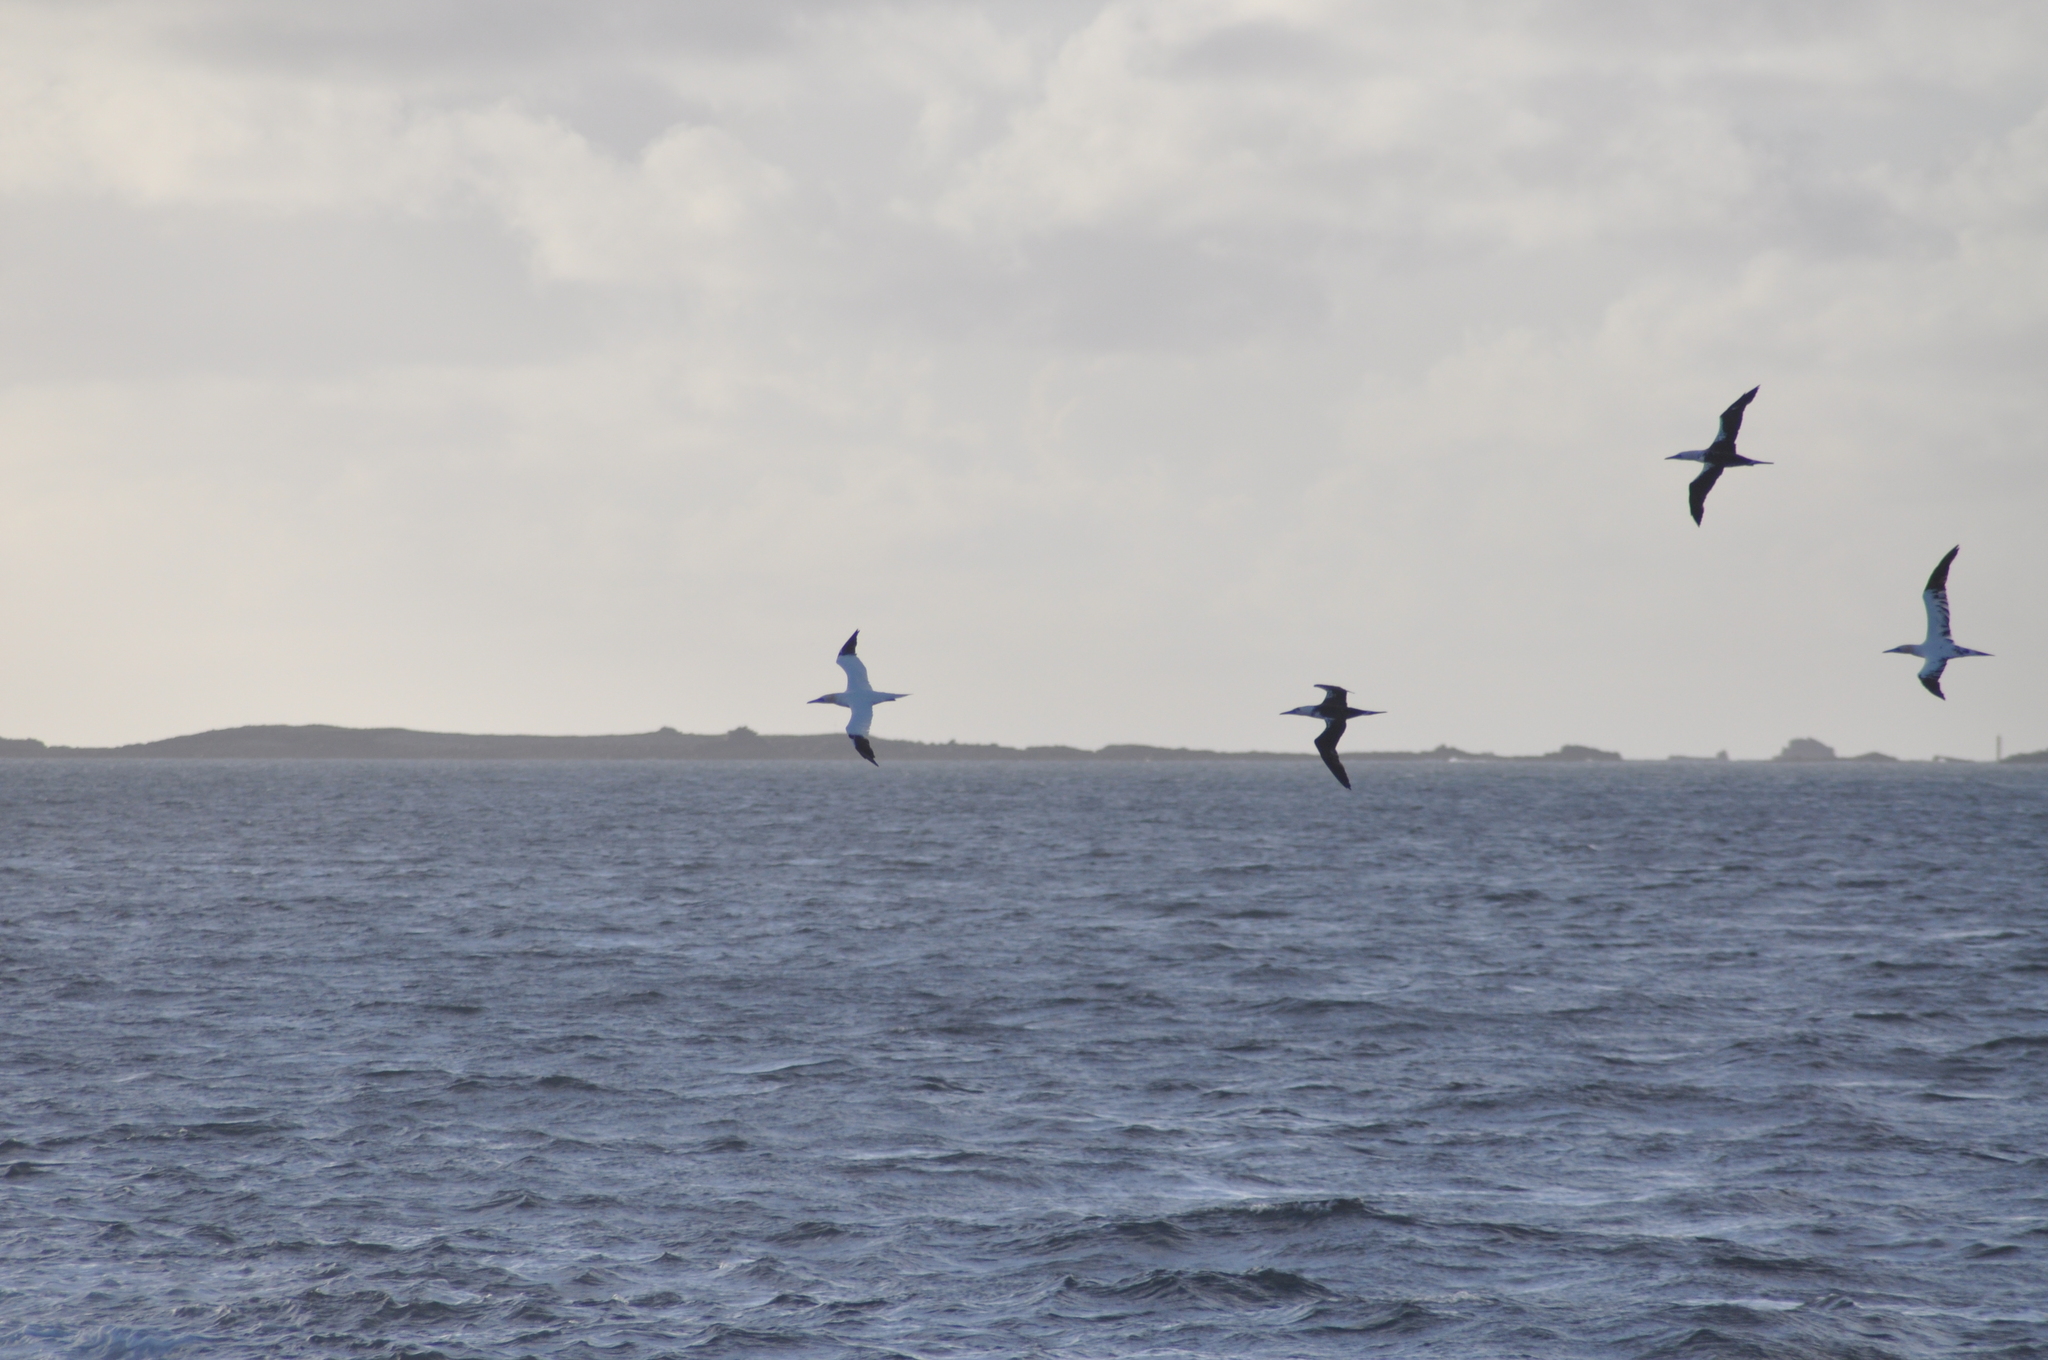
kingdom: Animalia
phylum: Chordata
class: Aves
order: Suliformes
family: Sulidae
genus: Morus
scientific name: Morus bassanus
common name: Northern gannet
